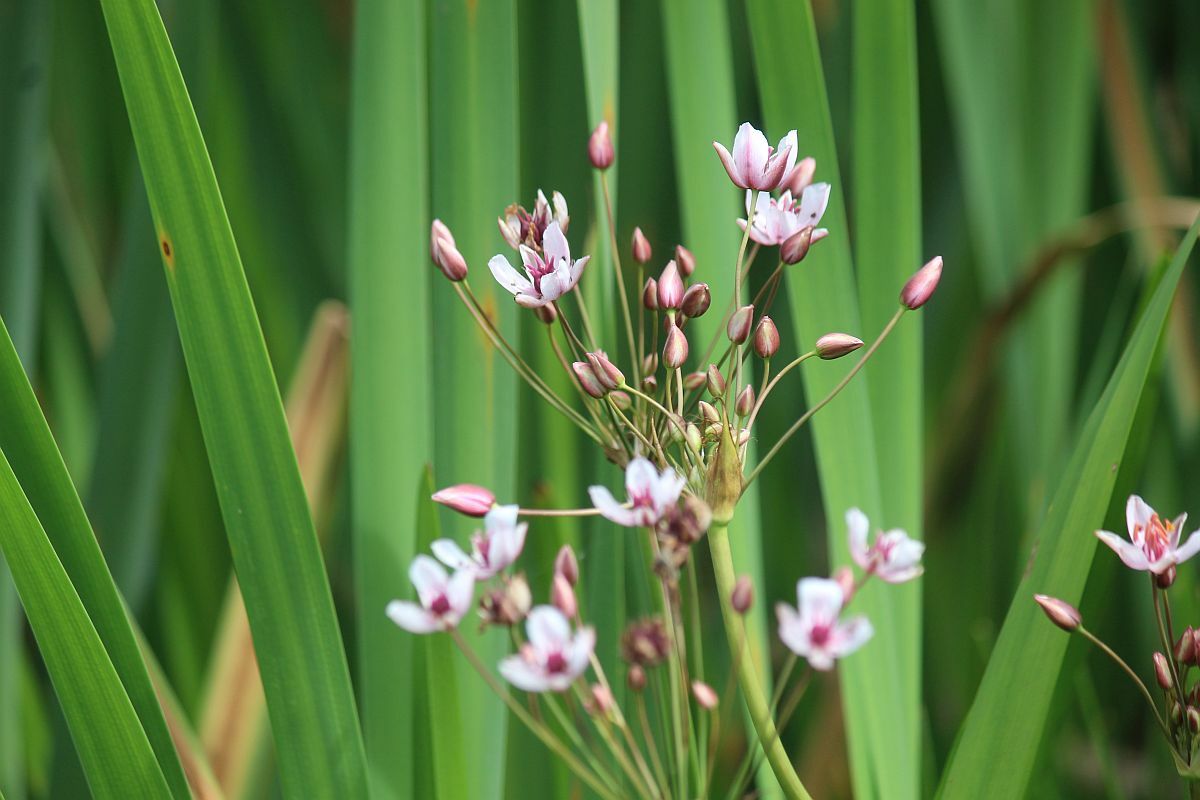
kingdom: Plantae
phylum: Tracheophyta
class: Liliopsida
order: Alismatales
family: Butomaceae
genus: Butomus
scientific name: Butomus umbellatus
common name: Flowering-rush
